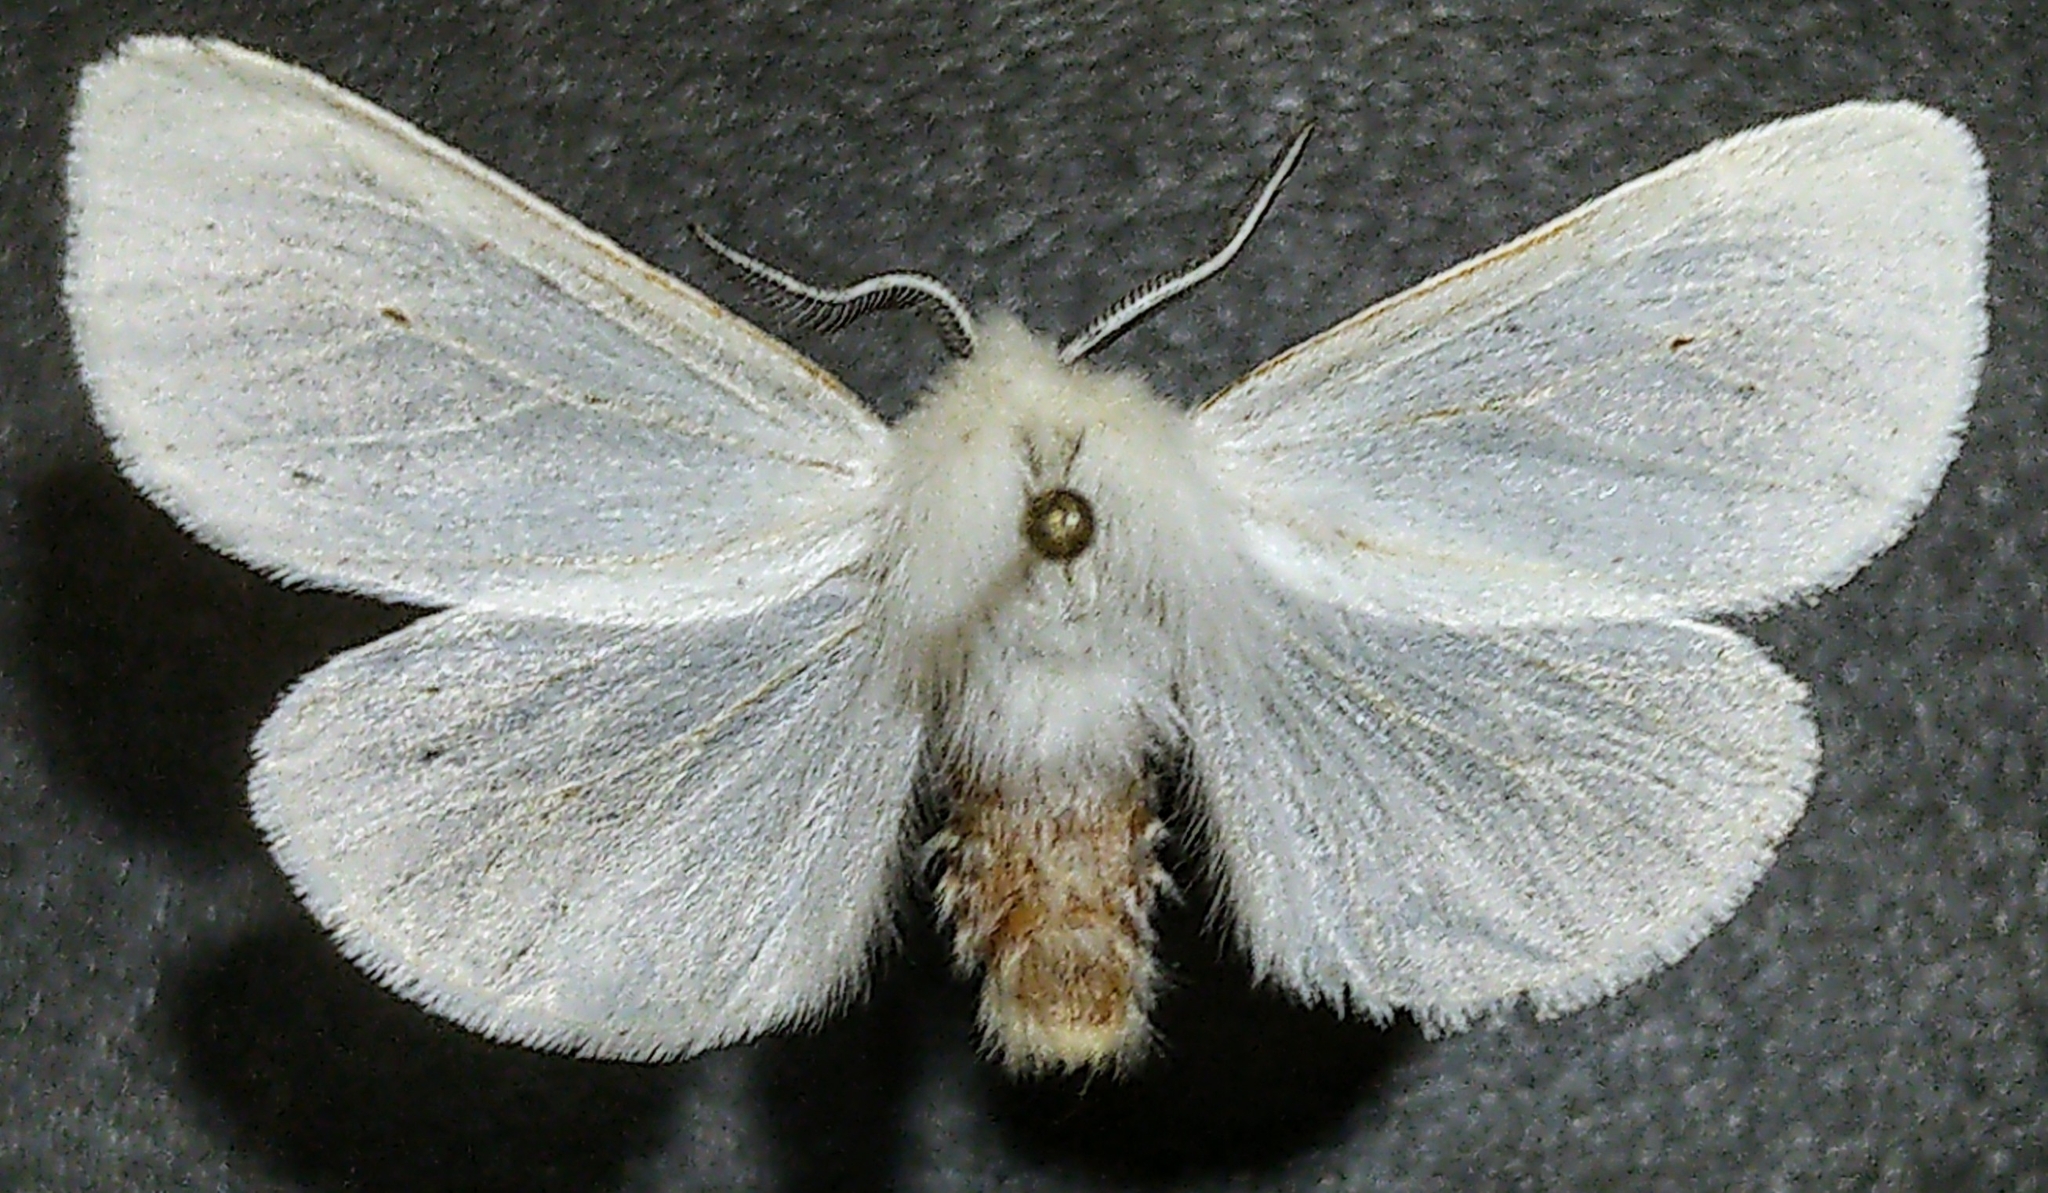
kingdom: Animalia
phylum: Arthropoda
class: Insecta
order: Lepidoptera
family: Erebidae
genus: Spilosoma
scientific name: Spilosoma congrua
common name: Agreeable tiger moth
